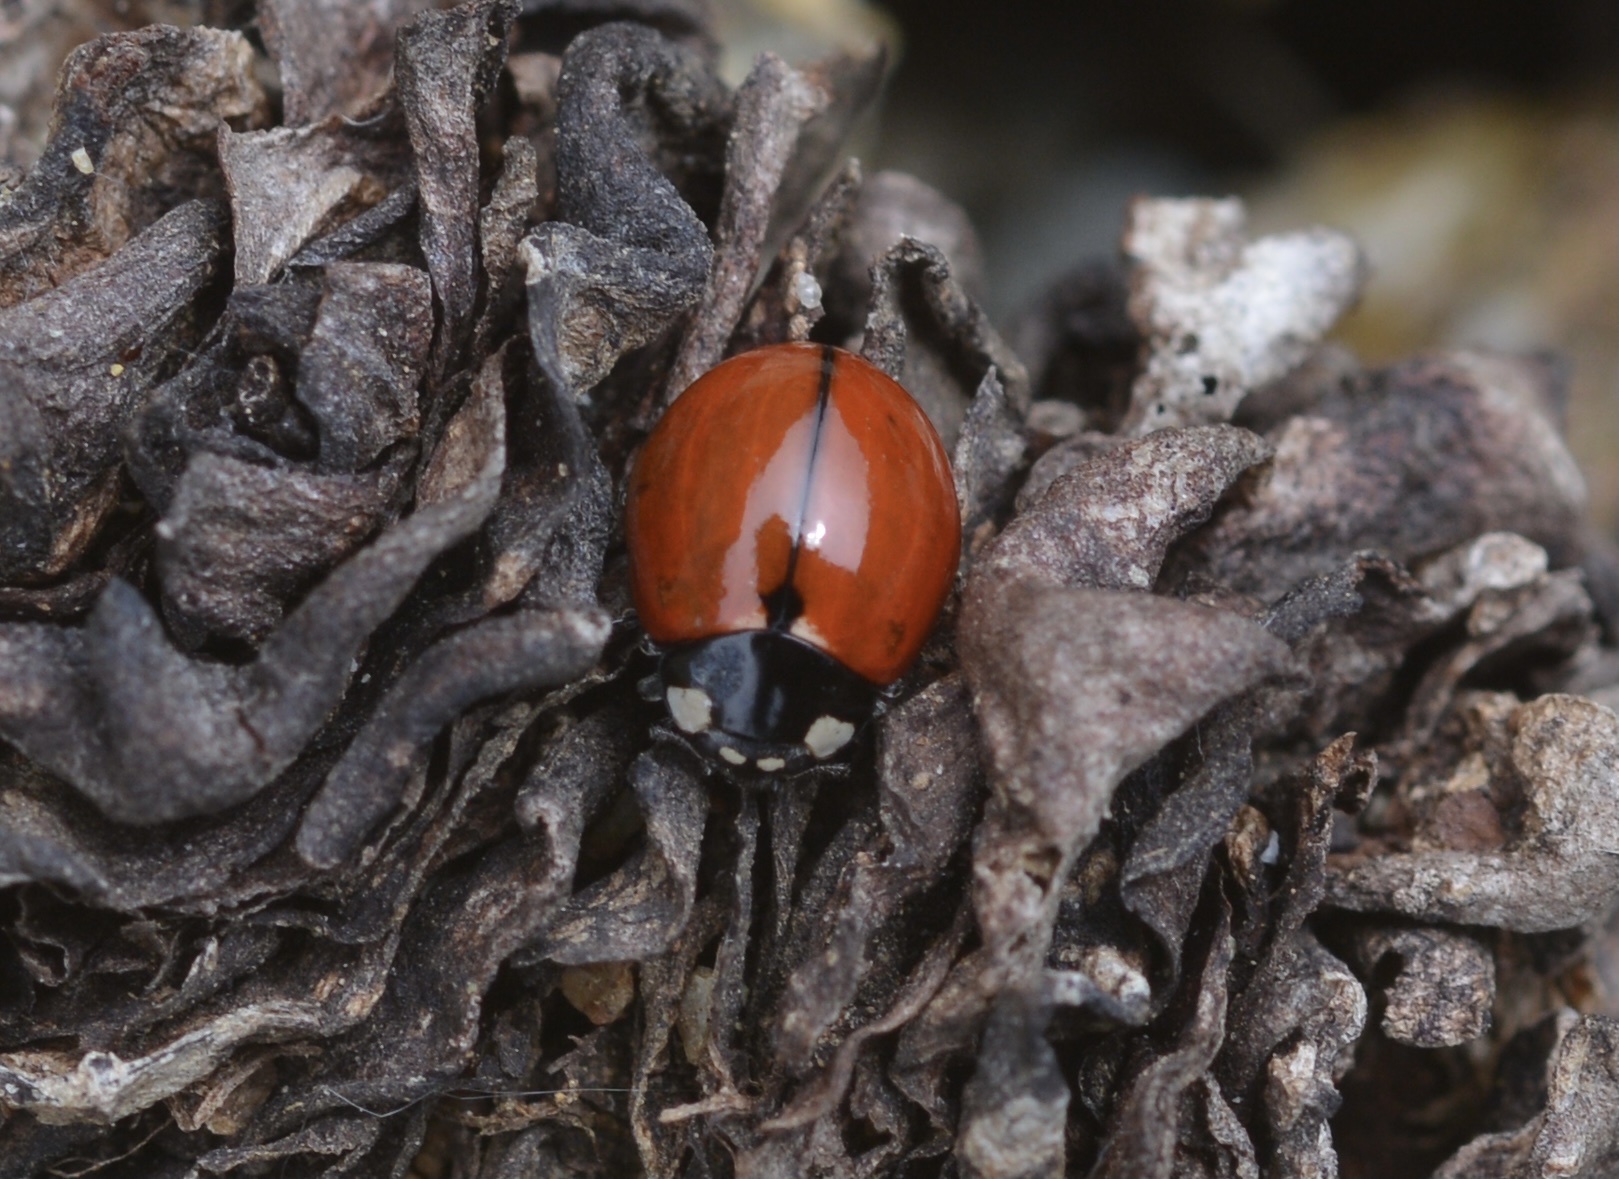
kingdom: Animalia
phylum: Arthropoda
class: Insecta
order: Coleoptera
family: Coccinellidae
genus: Coccinella
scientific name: Coccinella californica
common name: Lady beetle
